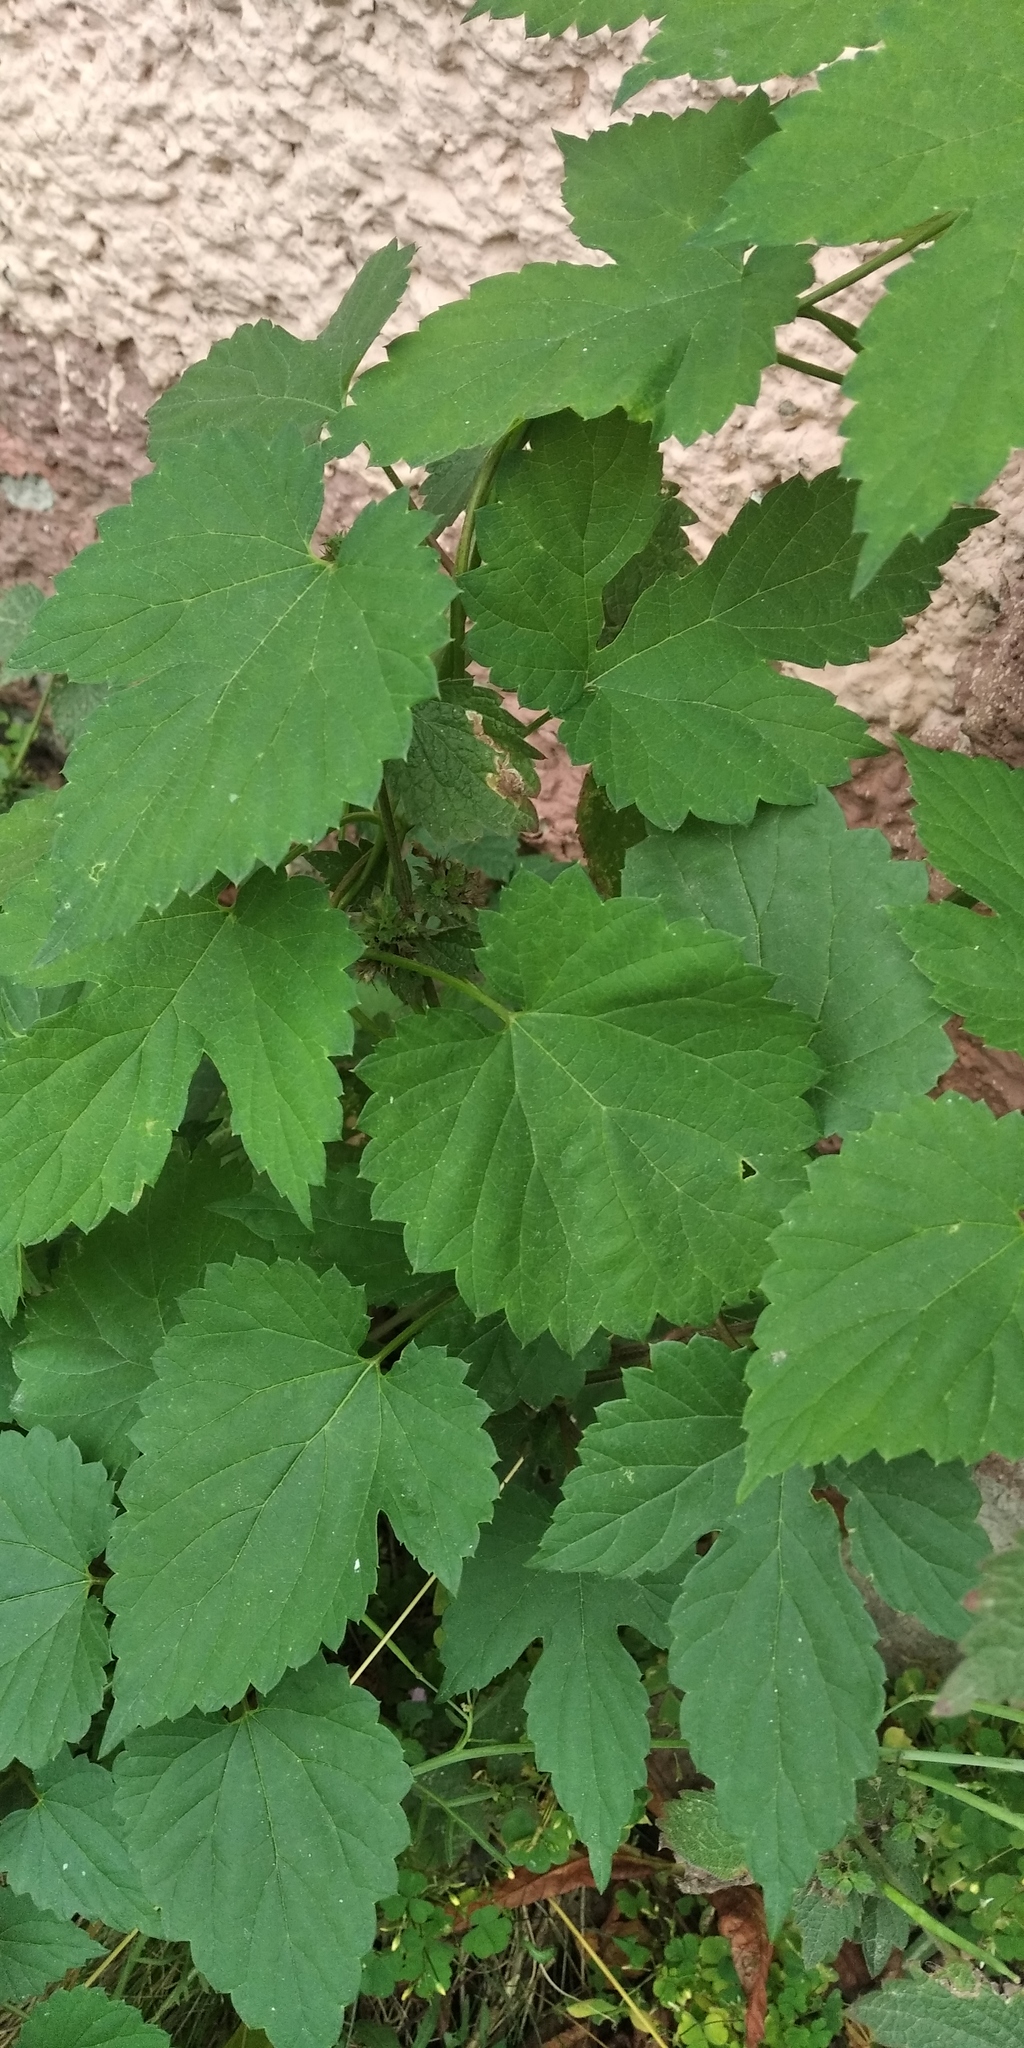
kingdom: Plantae
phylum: Tracheophyta
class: Magnoliopsida
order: Rosales
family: Cannabaceae
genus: Humulus
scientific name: Humulus lupulus
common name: Hop
